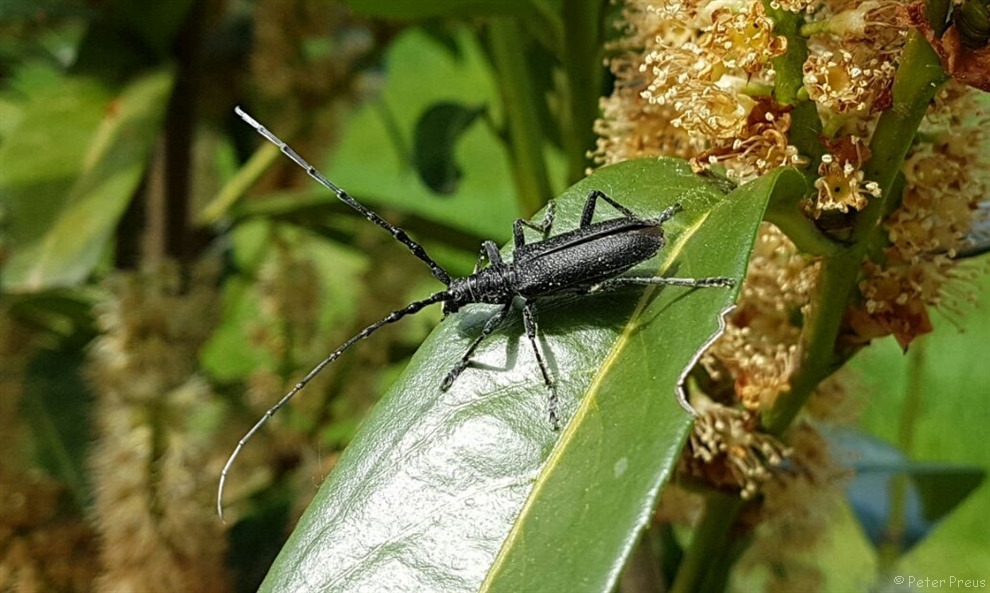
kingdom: Animalia
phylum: Arthropoda
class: Insecta
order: Coleoptera
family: Cerambycidae
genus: Cerambyx
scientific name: Cerambyx scopolii
